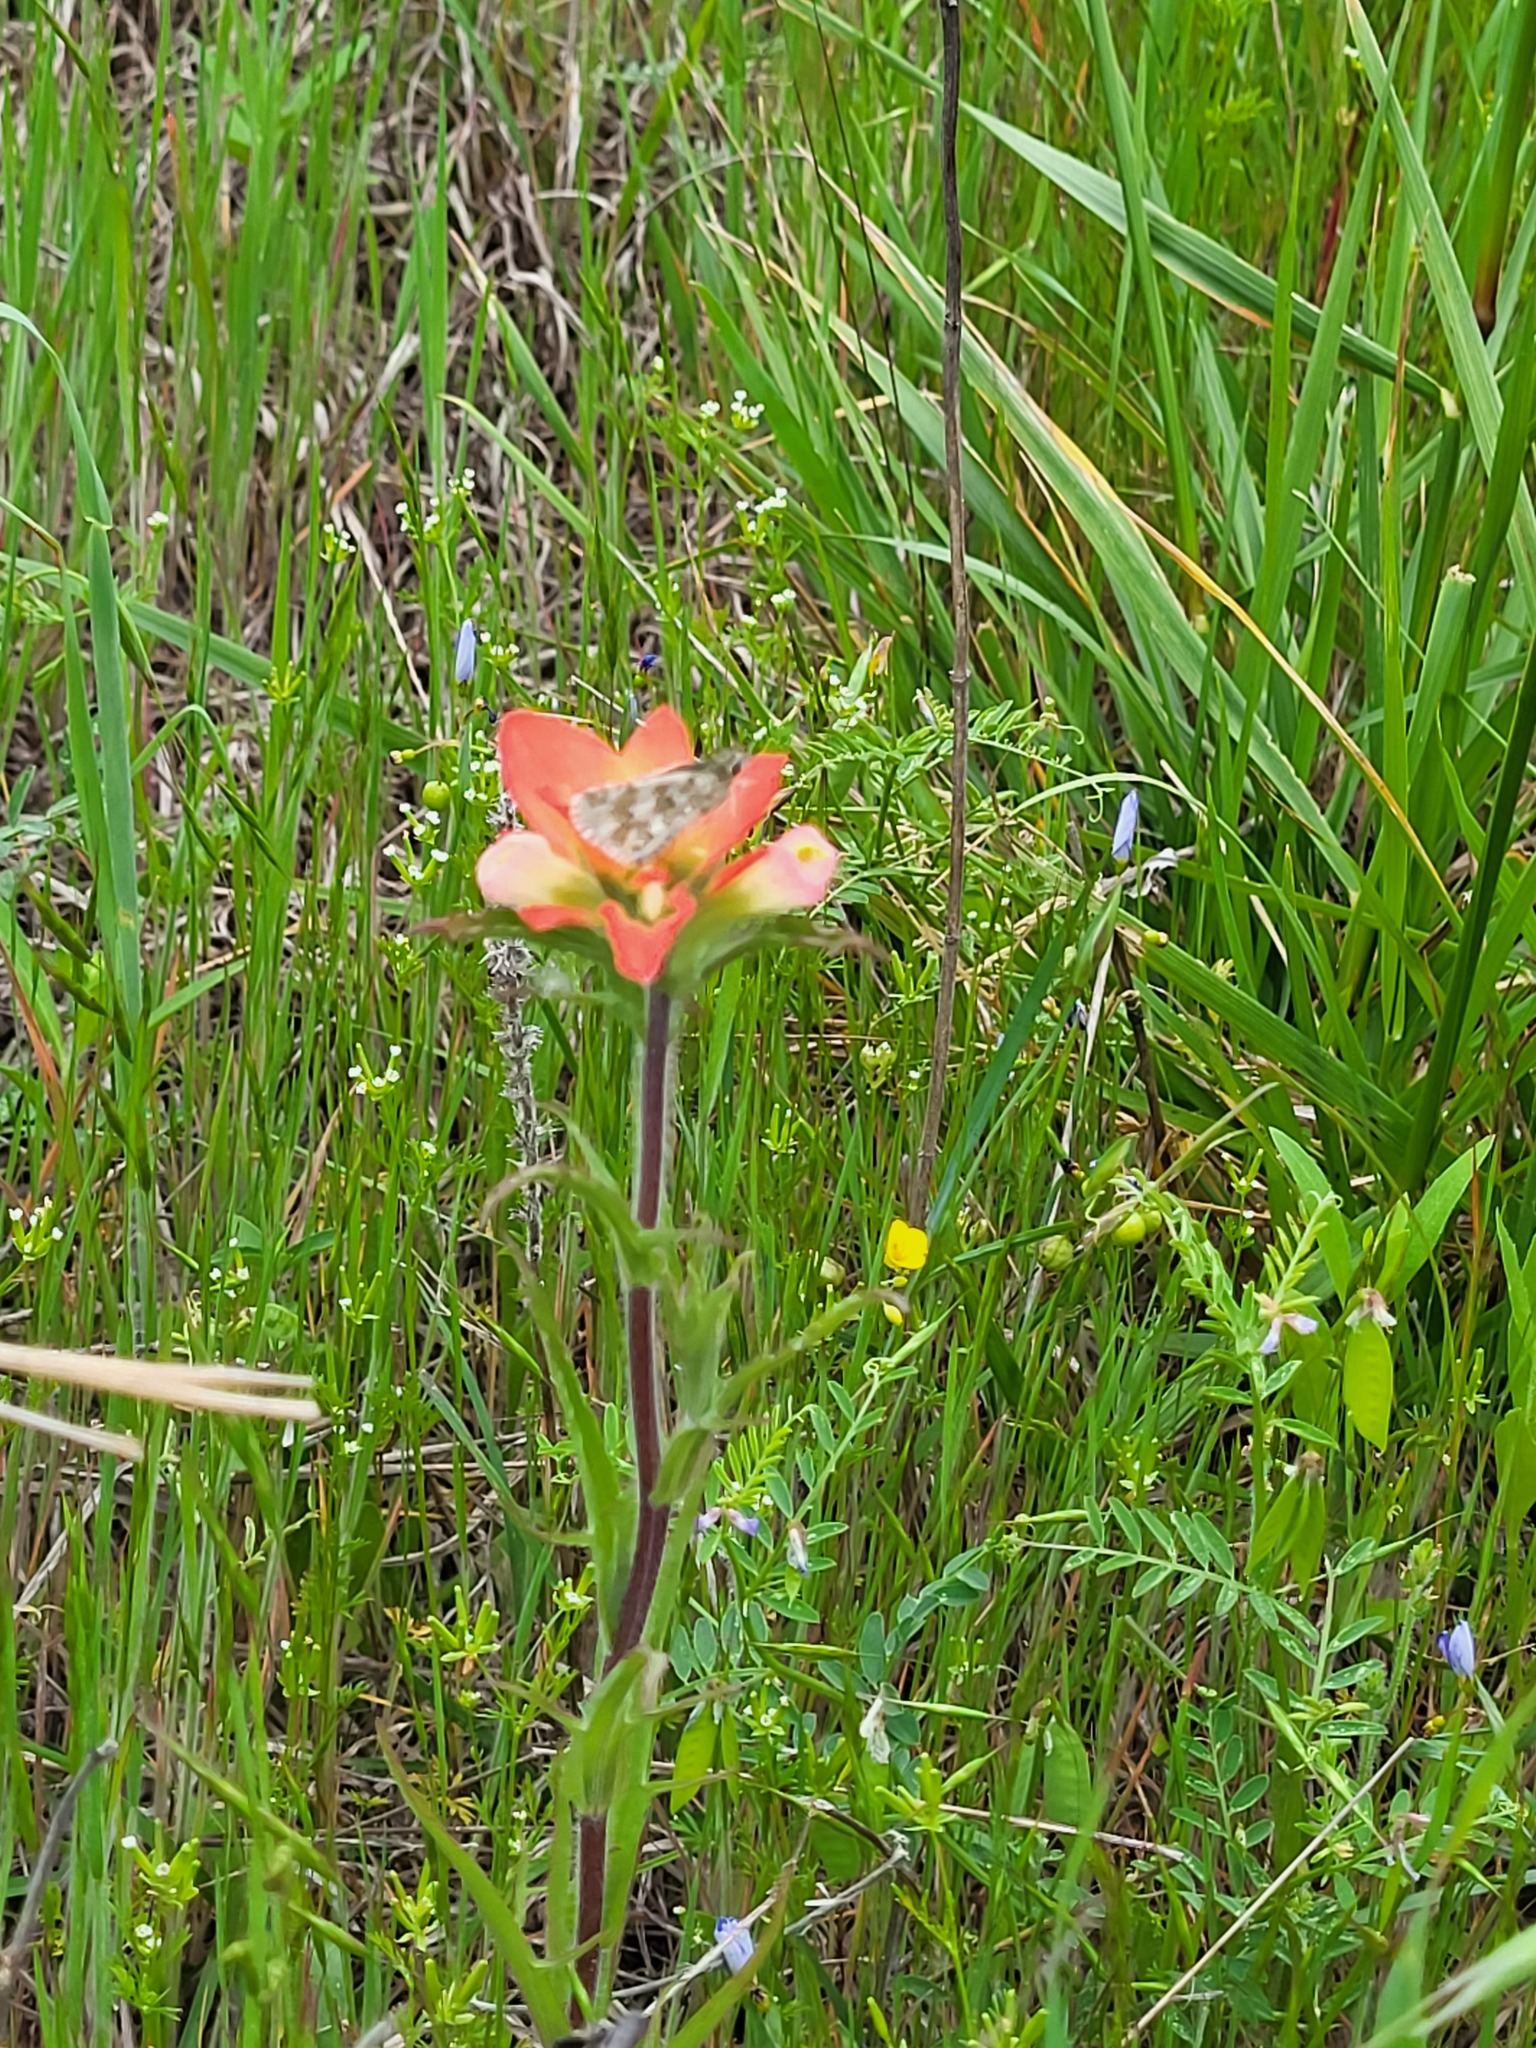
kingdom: Plantae
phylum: Tracheophyta
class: Magnoliopsida
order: Lamiales
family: Orobanchaceae
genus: Castilleja
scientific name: Castilleja indivisa
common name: Texas paintbrush
